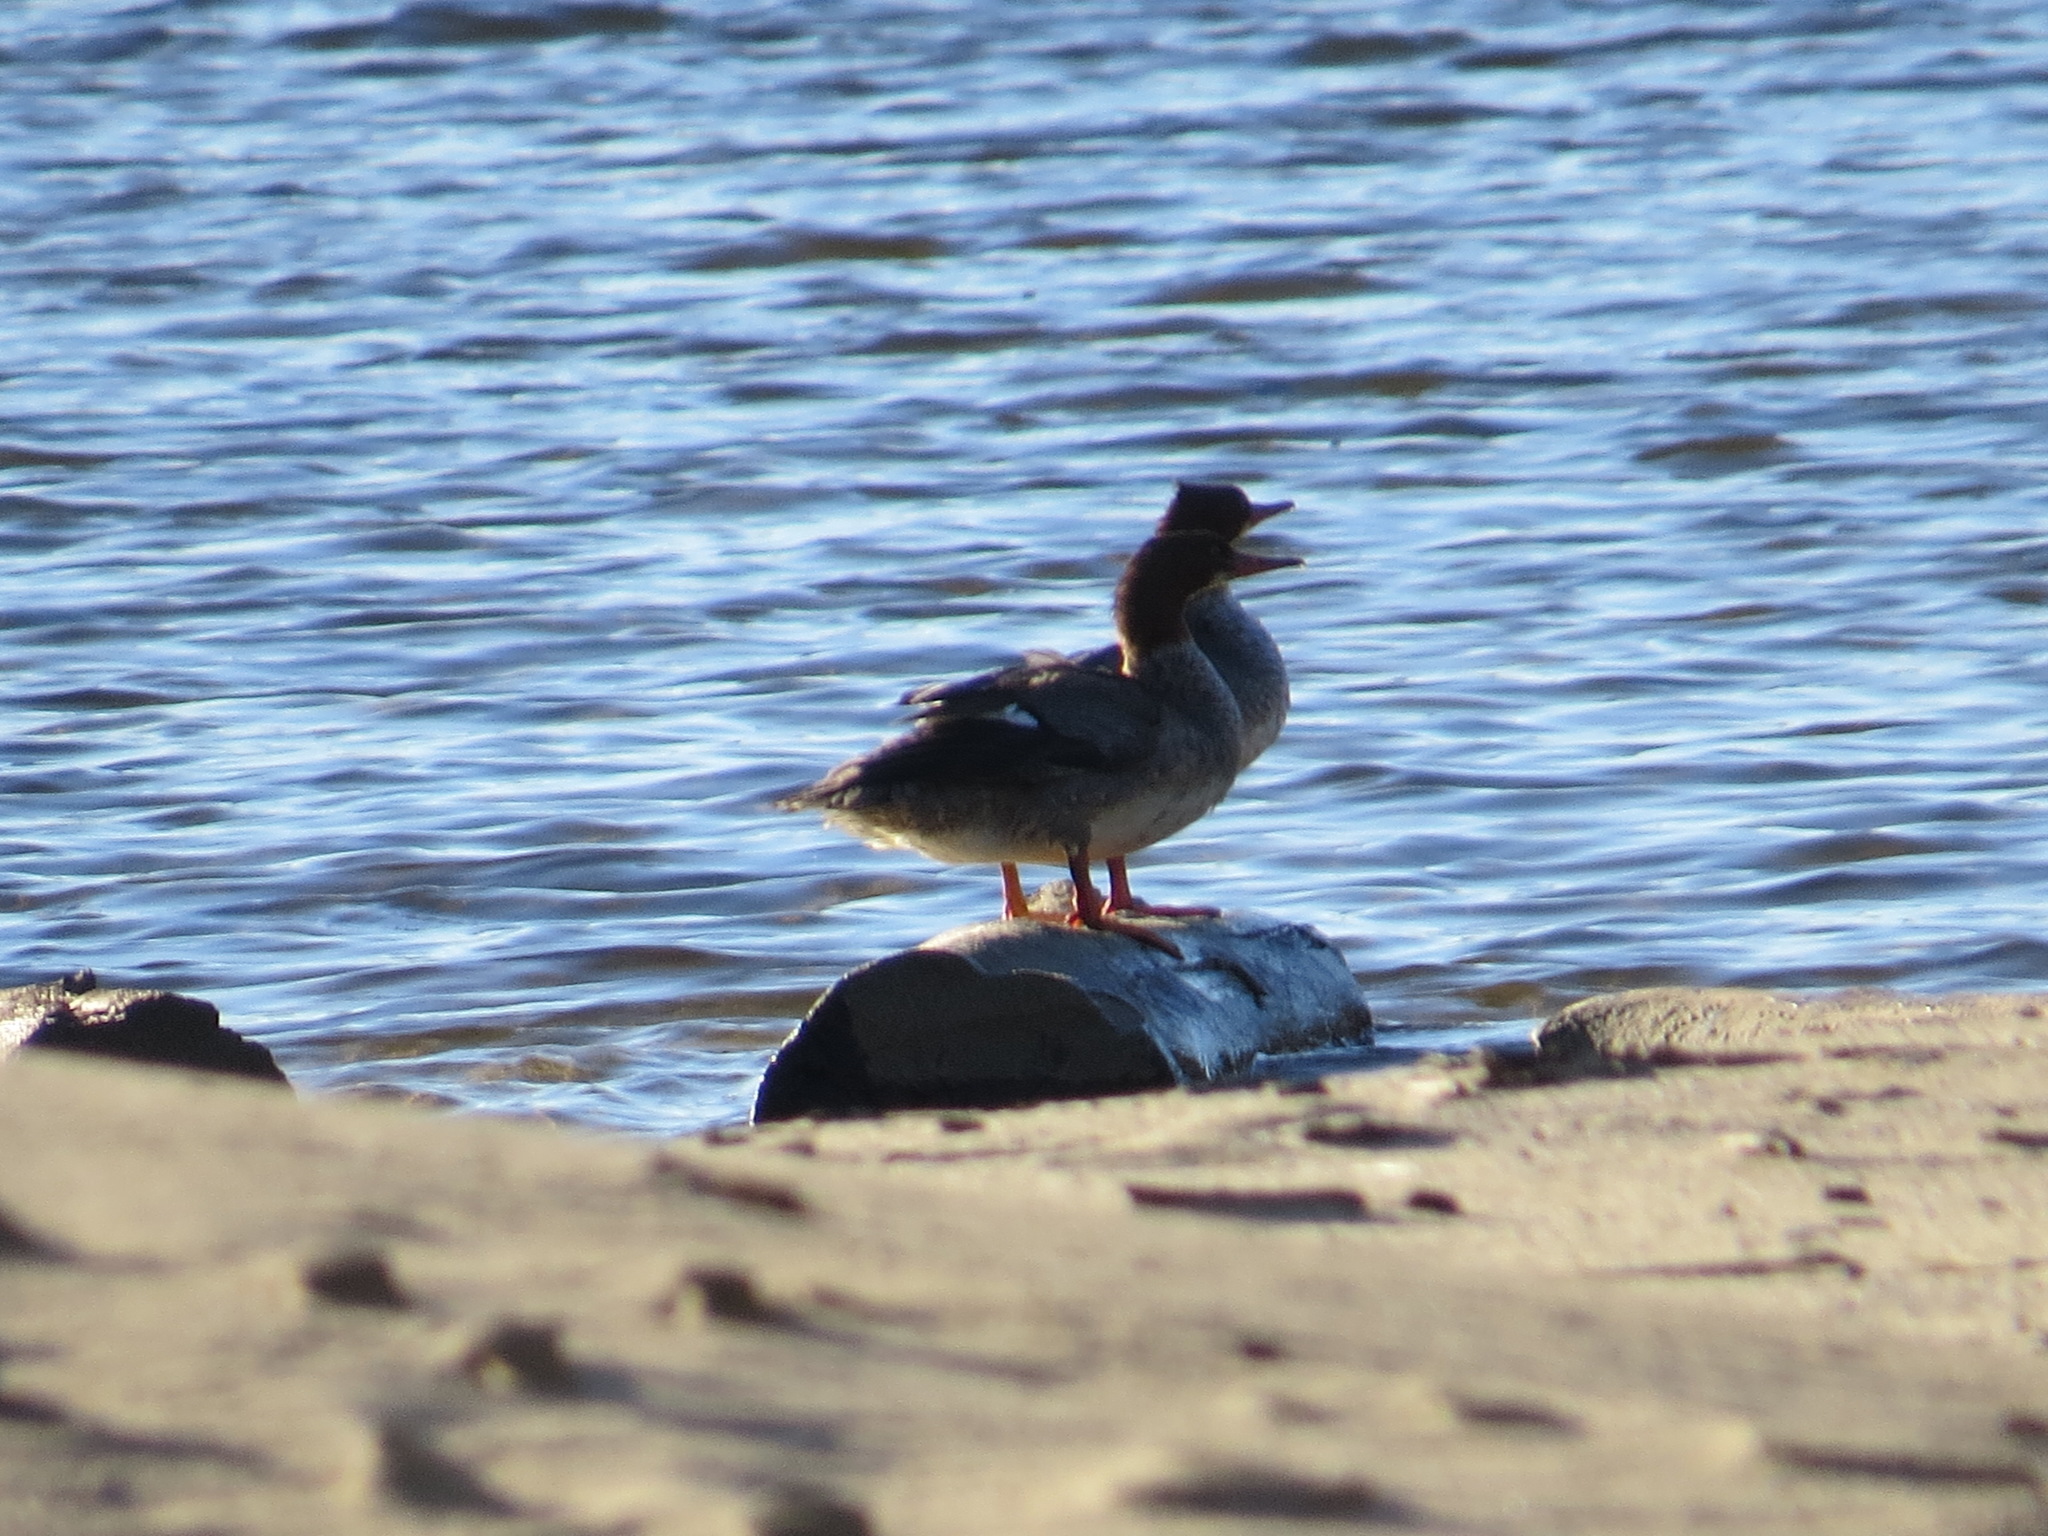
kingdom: Animalia
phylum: Chordata
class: Aves
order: Anseriformes
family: Anatidae
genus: Mergus
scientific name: Mergus merganser
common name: Common merganser
